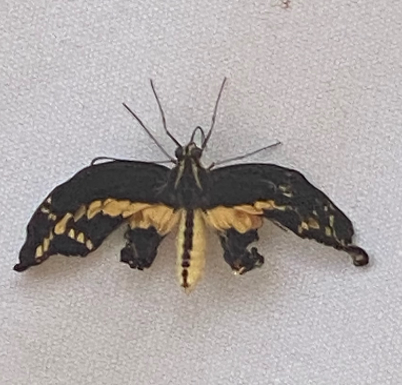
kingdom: Animalia
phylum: Arthropoda
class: Insecta
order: Lepidoptera
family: Papilionidae
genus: Papilio
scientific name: Papilio rumiko
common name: Western giant swallowtail
